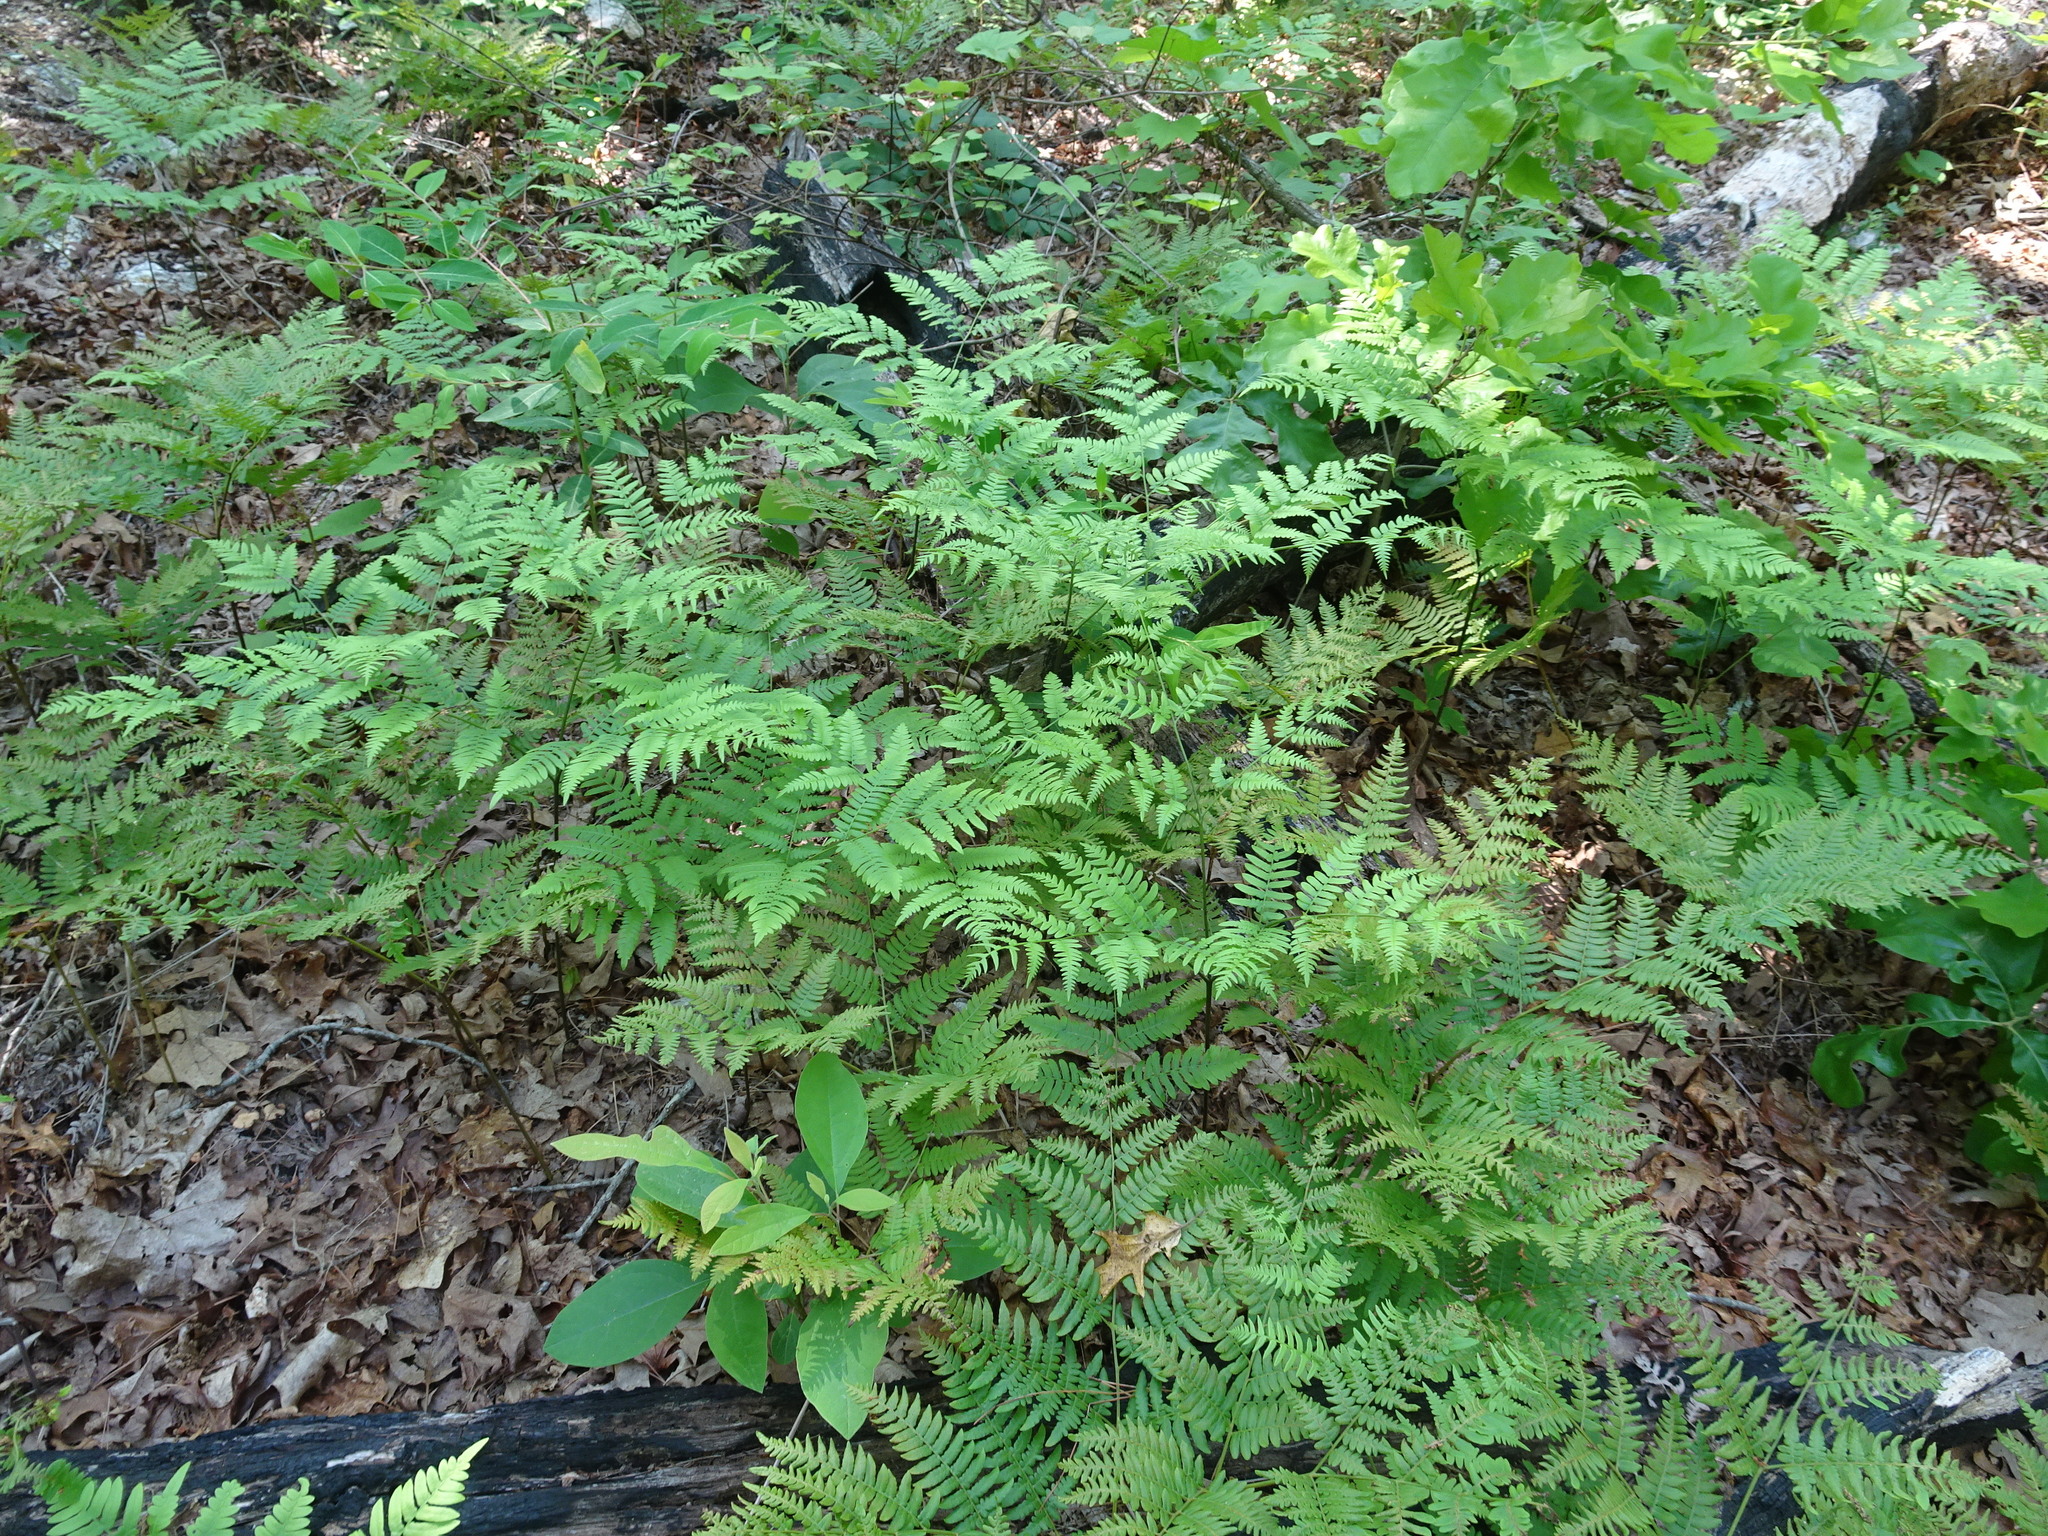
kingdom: Plantae
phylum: Tracheophyta
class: Polypodiopsida
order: Polypodiales
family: Dennstaedtiaceae
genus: Pteridium
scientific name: Pteridium aquilinum
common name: Bracken
